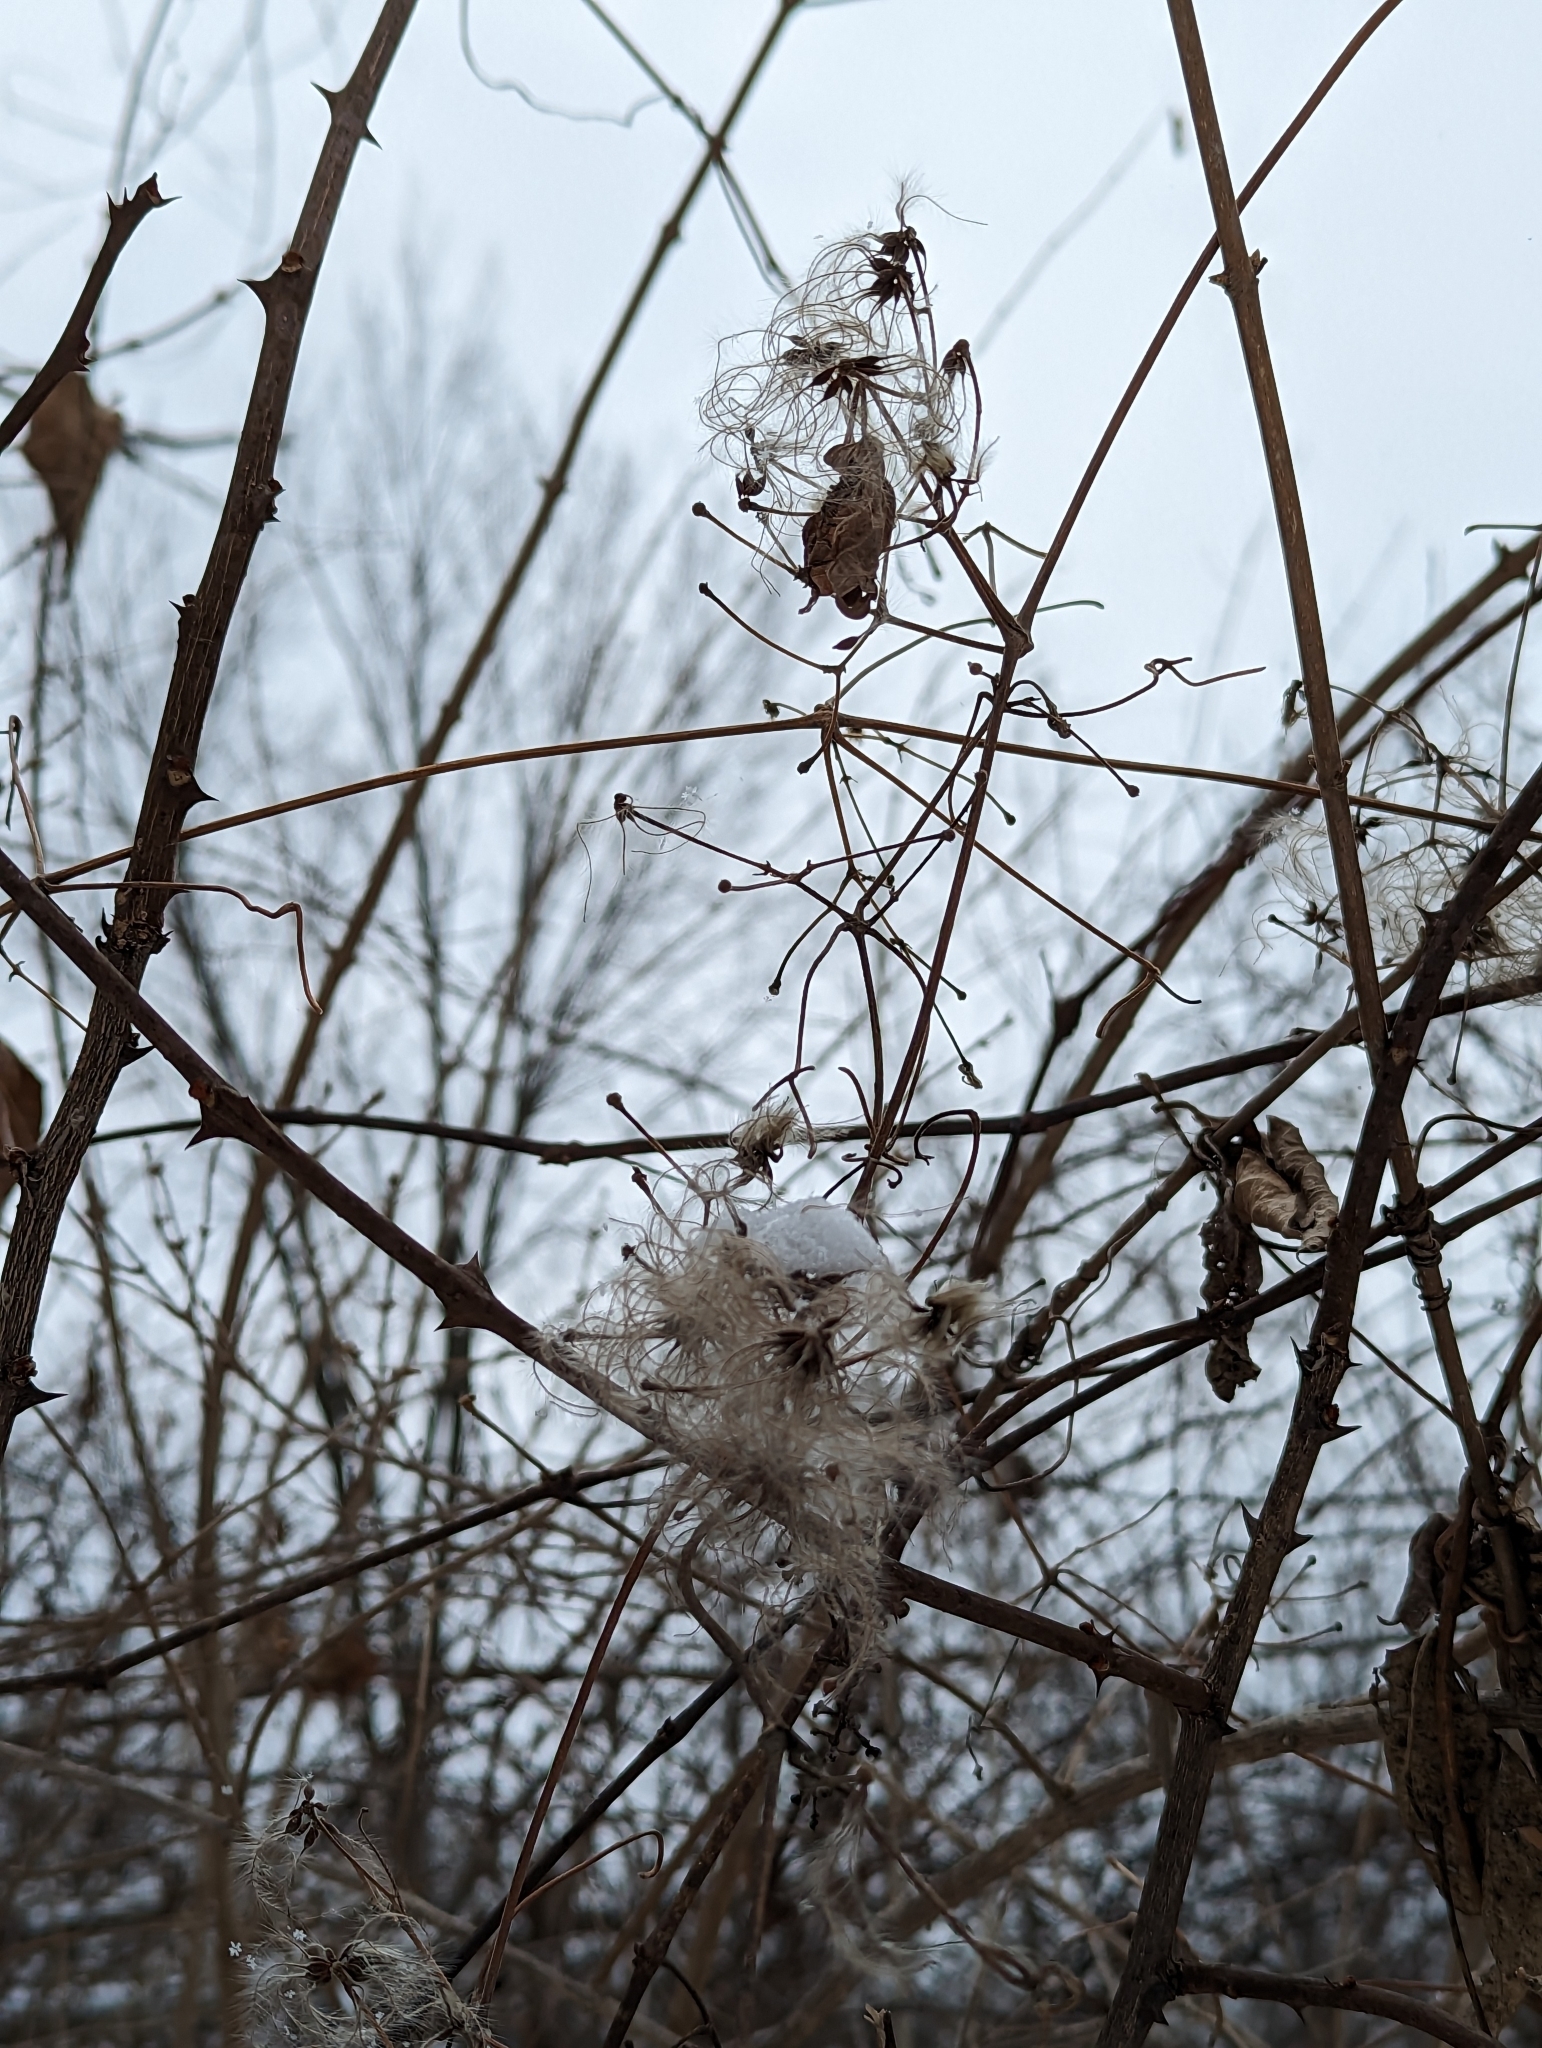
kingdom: Plantae
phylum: Tracheophyta
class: Magnoliopsida
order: Ranunculales
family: Ranunculaceae
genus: Clematis
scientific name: Clematis virginiana
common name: Virgin's-bower
